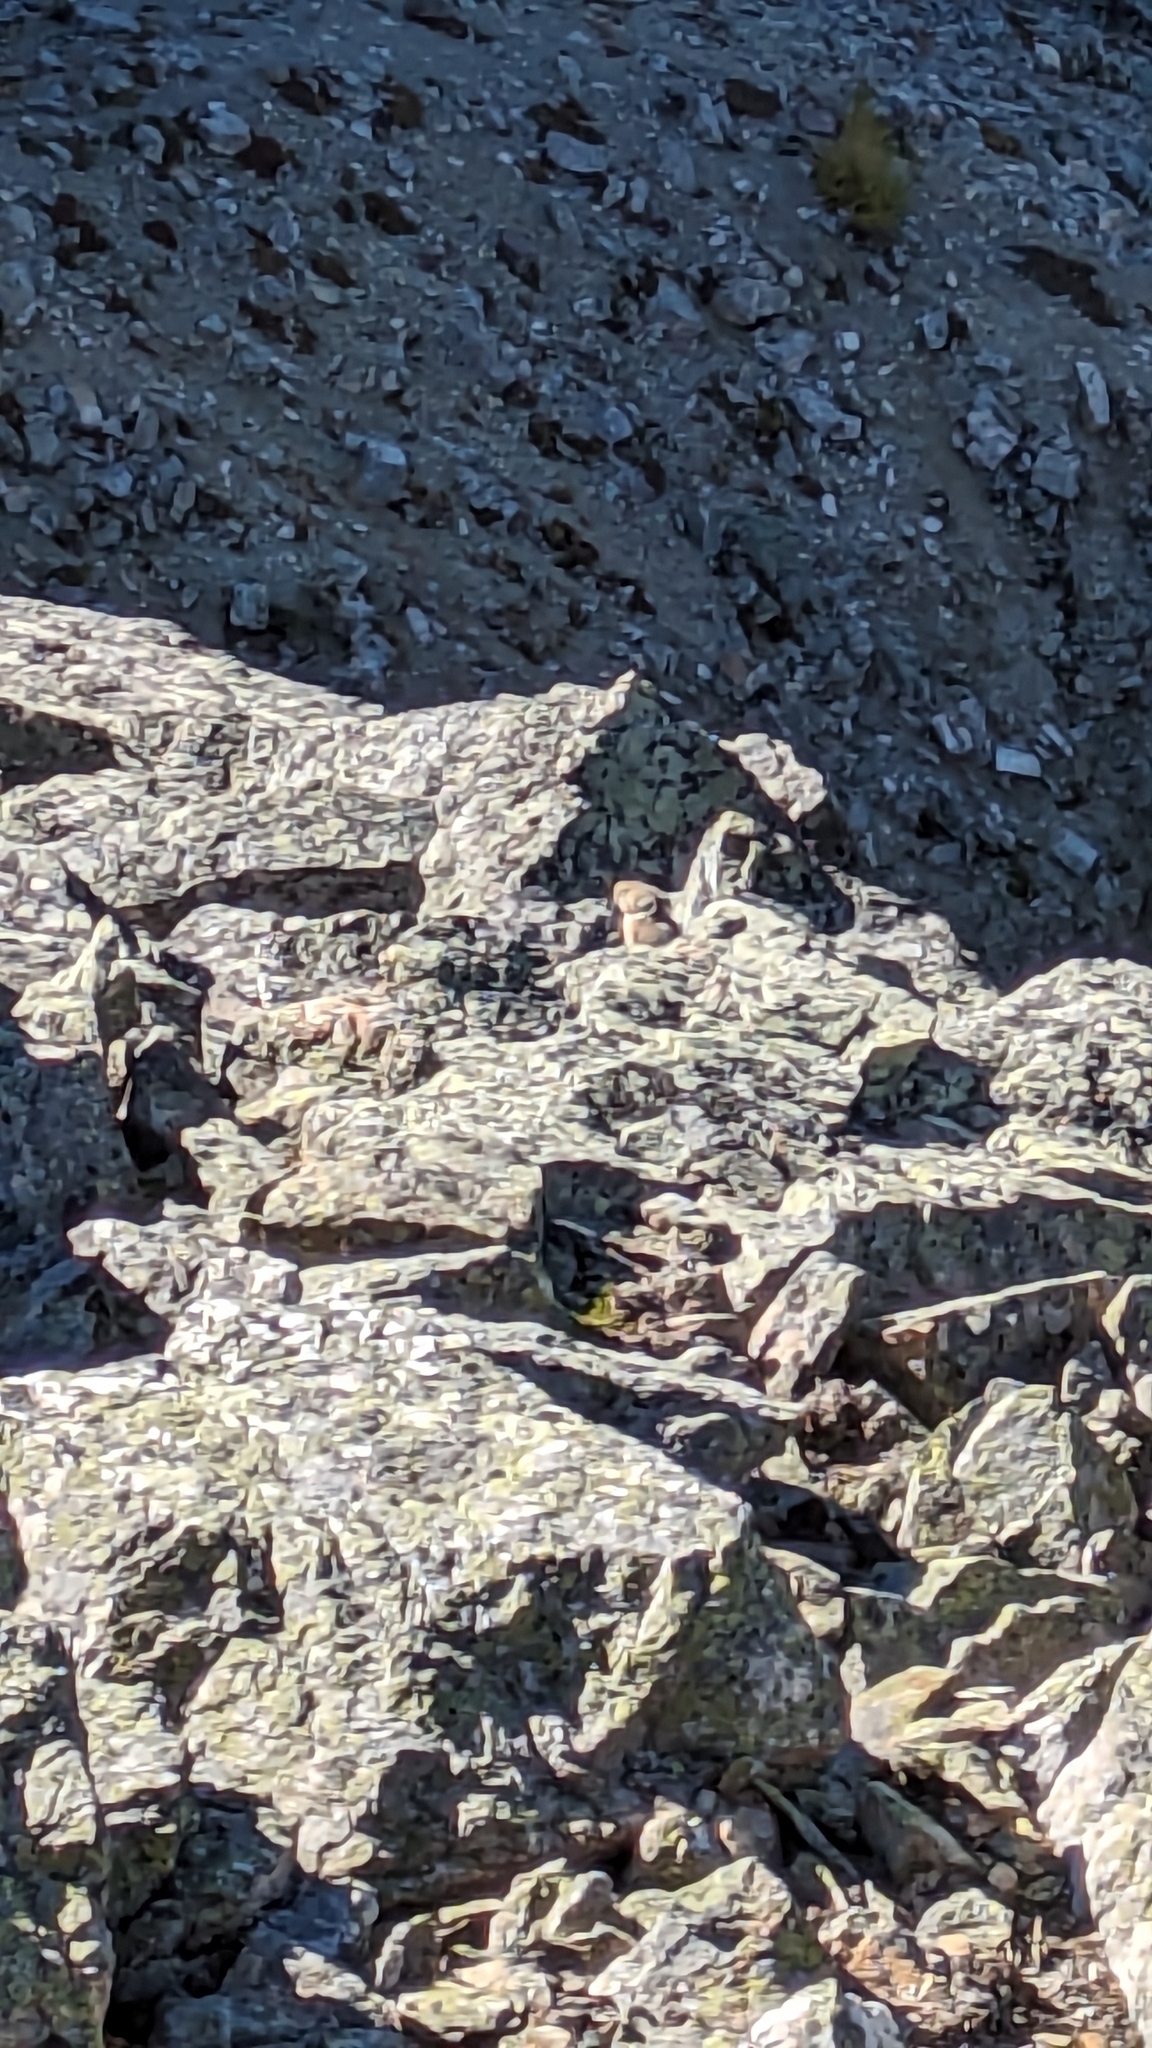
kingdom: Animalia
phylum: Chordata
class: Mammalia
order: Lagomorpha
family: Ochotonidae
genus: Ochotona
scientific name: Ochotona princeps
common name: American pika
